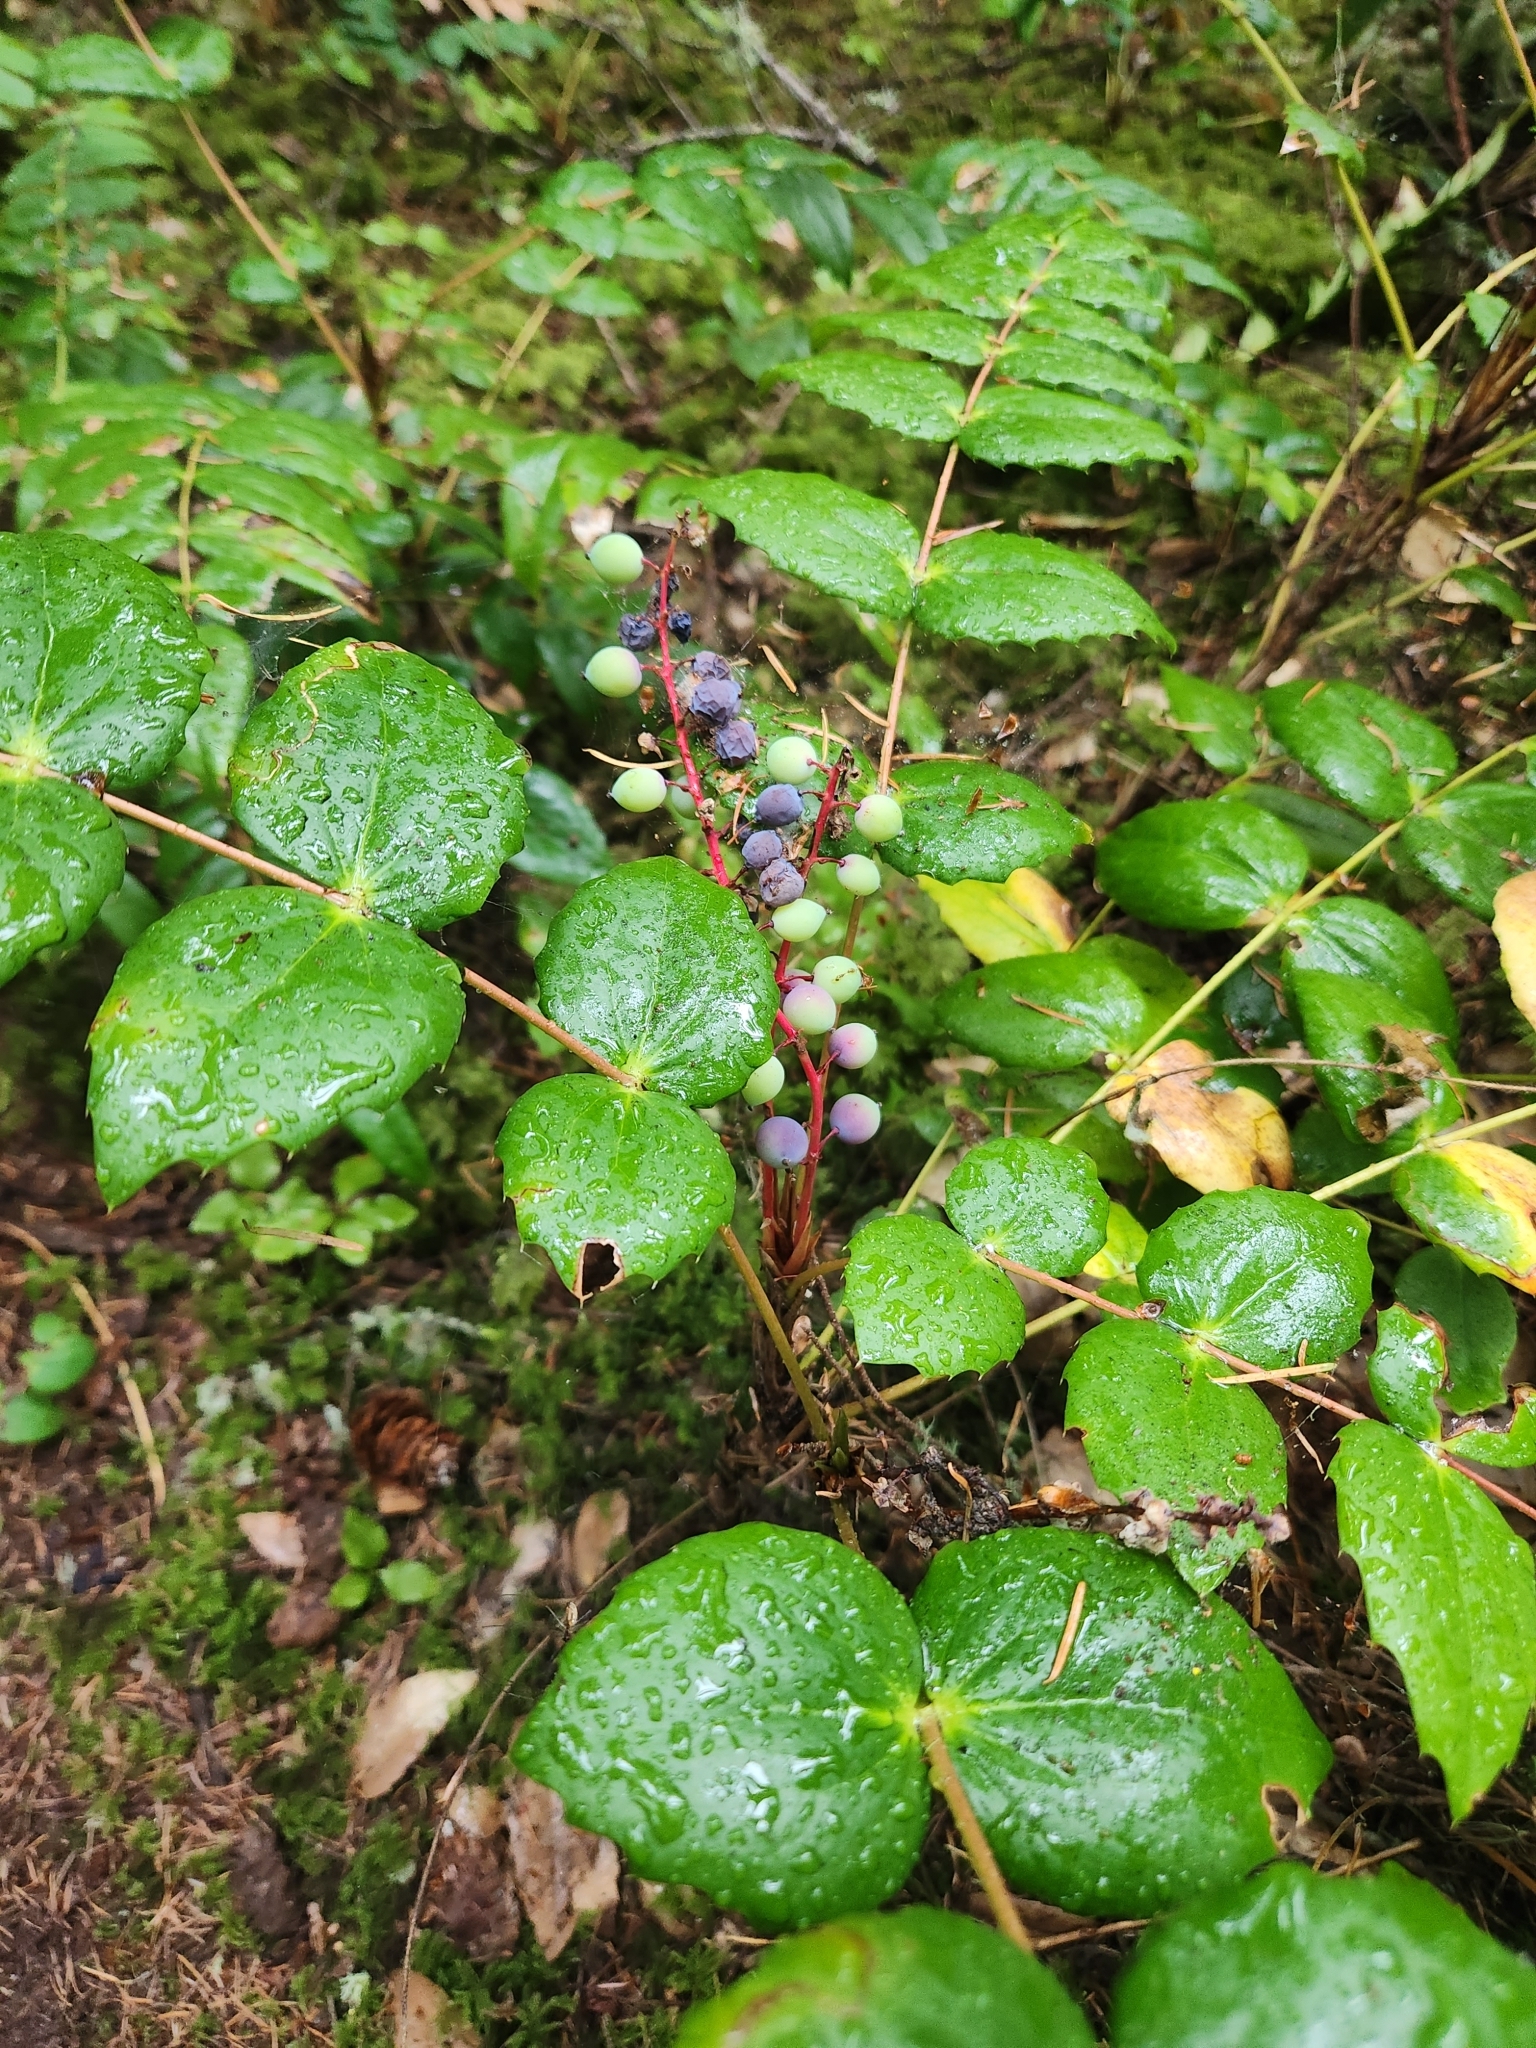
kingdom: Plantae
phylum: Tracheophyta
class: Magnoliopsida
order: Ranunculales
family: Berberidaceae
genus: Mahonia
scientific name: Mahonia nervosa
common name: Cascade oregon-grape
